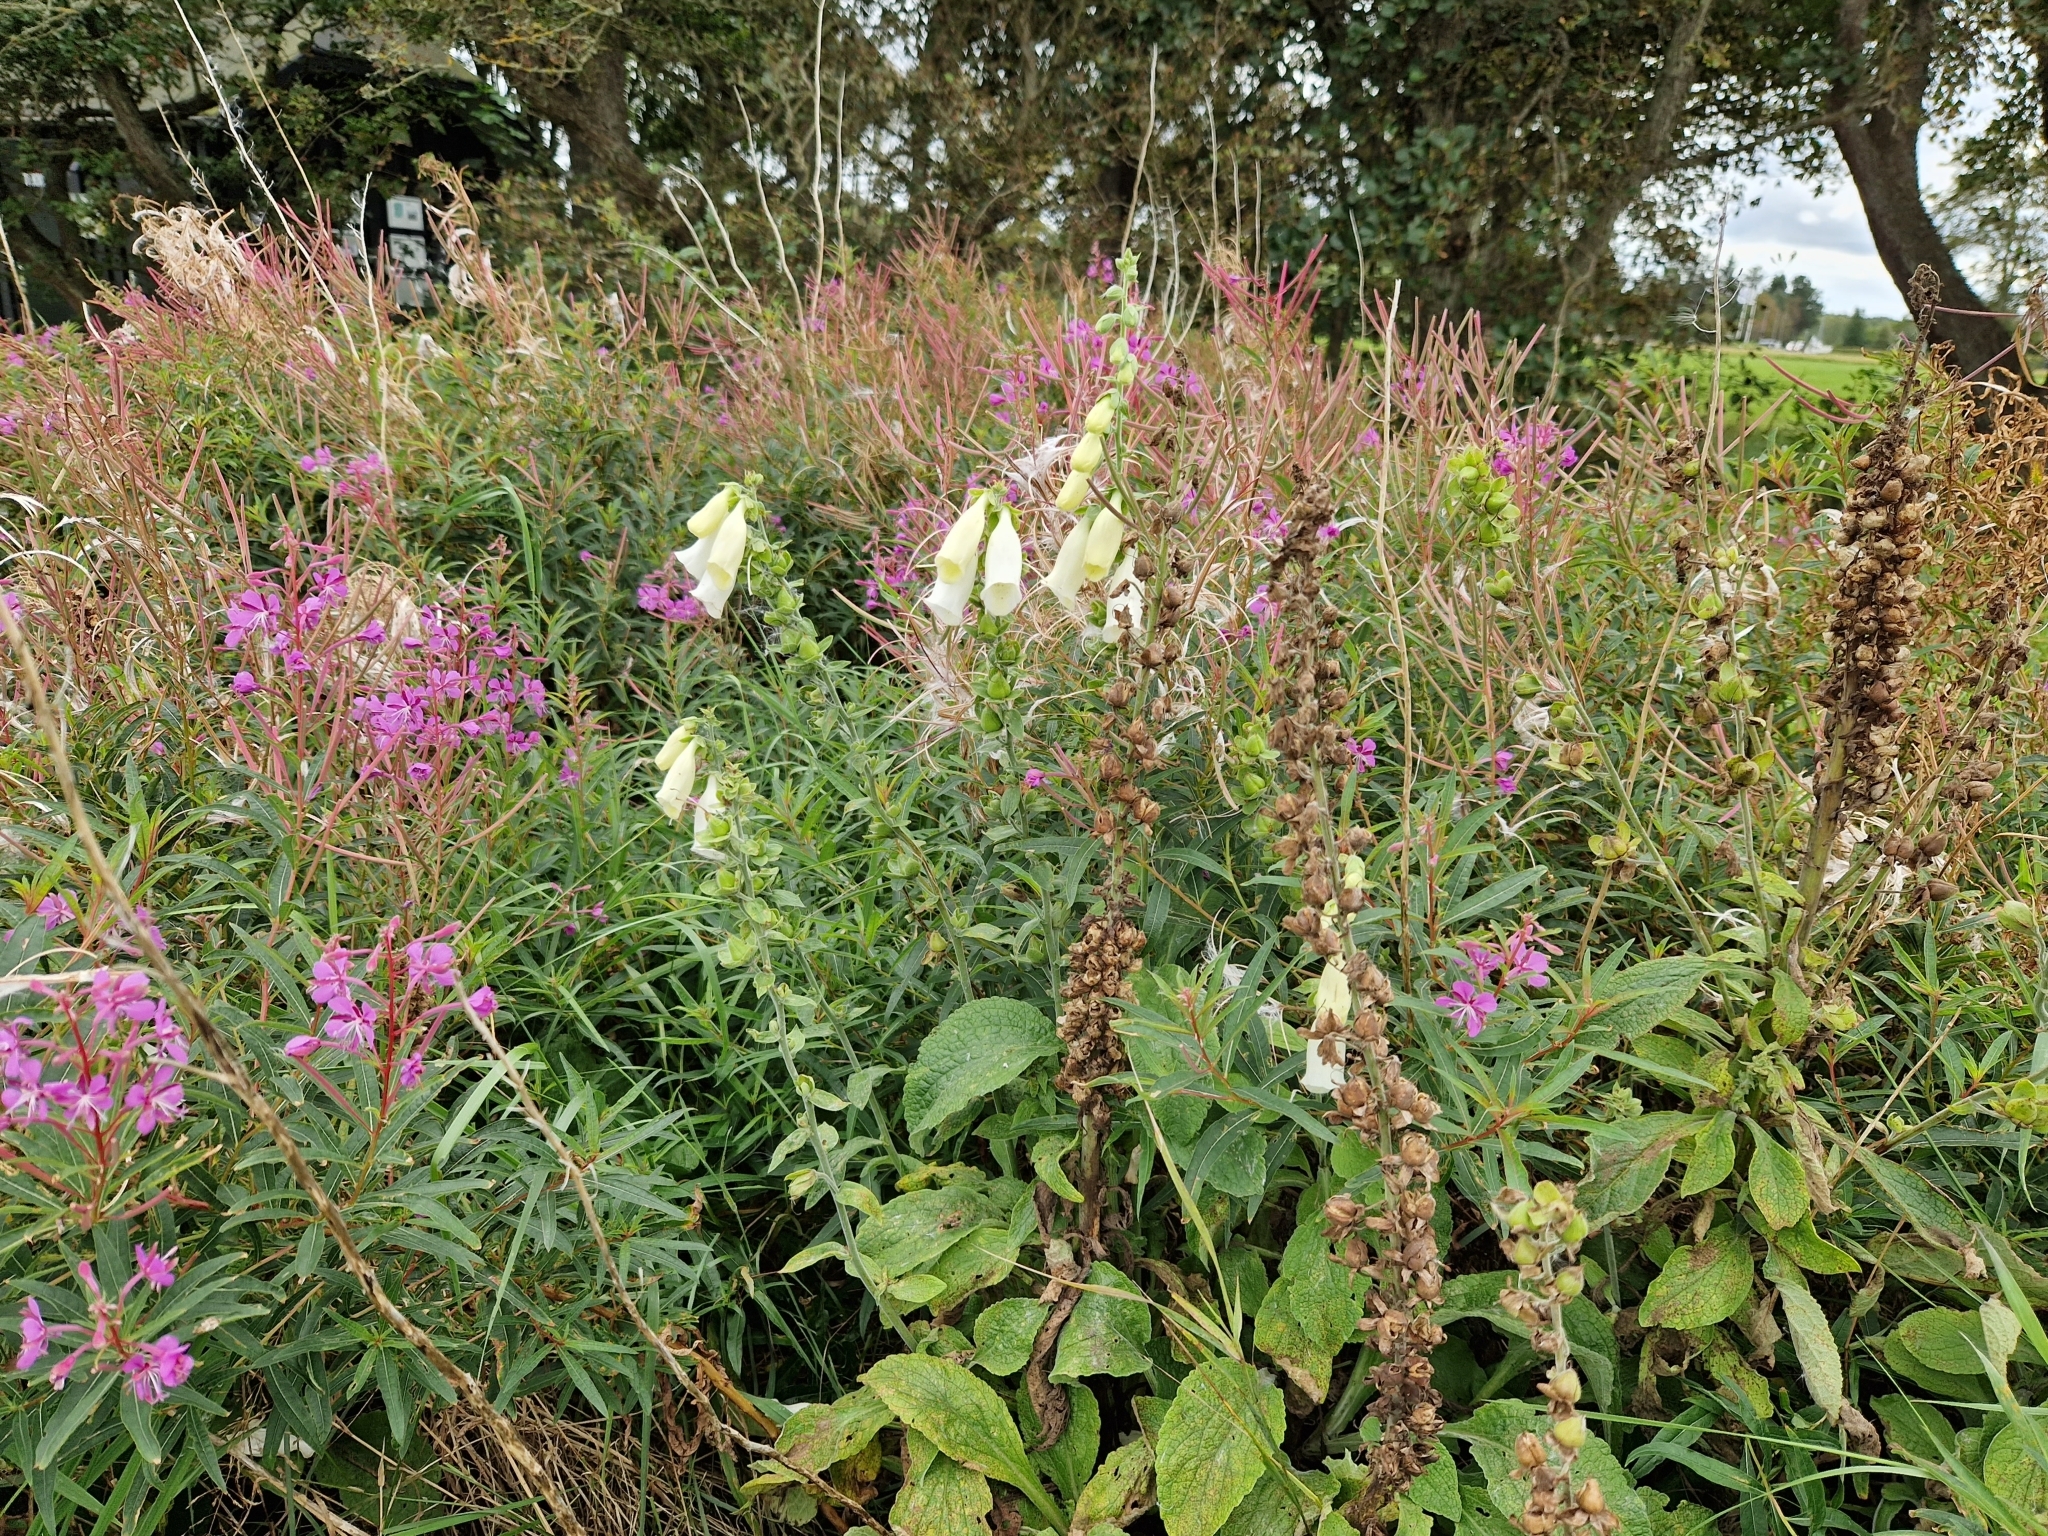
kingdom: Plantae
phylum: Tracheophyta
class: Magnoliopsida
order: Lamiales
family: Plantaginaceae
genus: Digitalis
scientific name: Digitalis purpurea
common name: Foxglove
